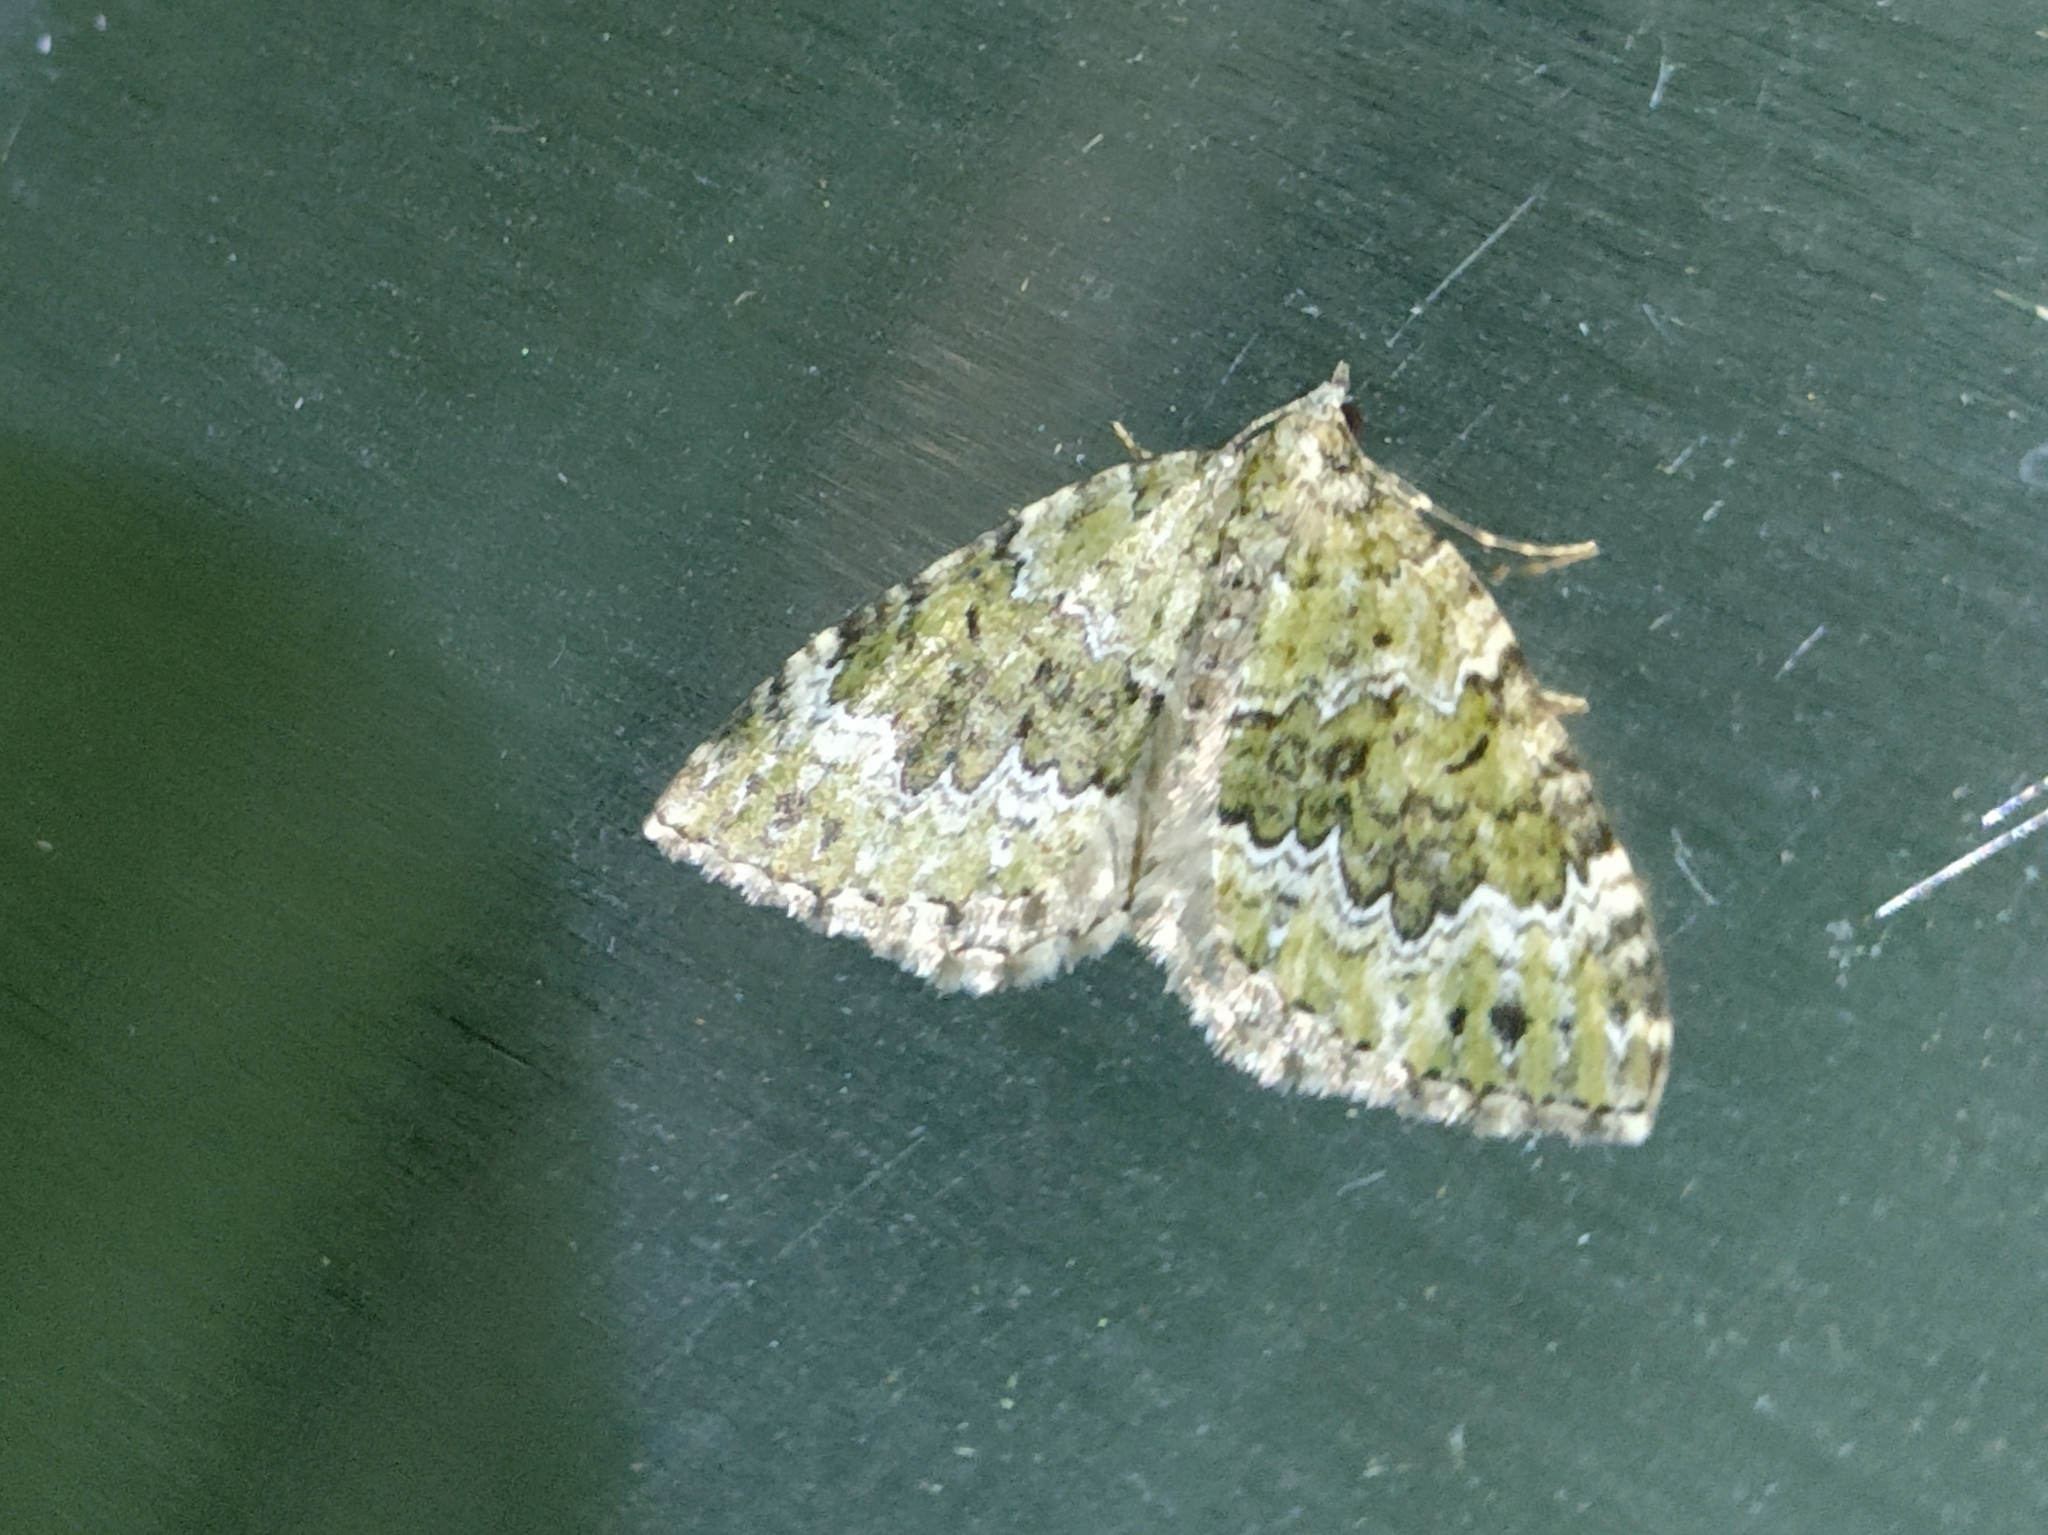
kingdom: Animalia
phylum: Arthropoda
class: Insecta
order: Lepidoptera
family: Geometridae
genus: Colostygia
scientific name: Colostygia olivata
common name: Beech-green carpet
